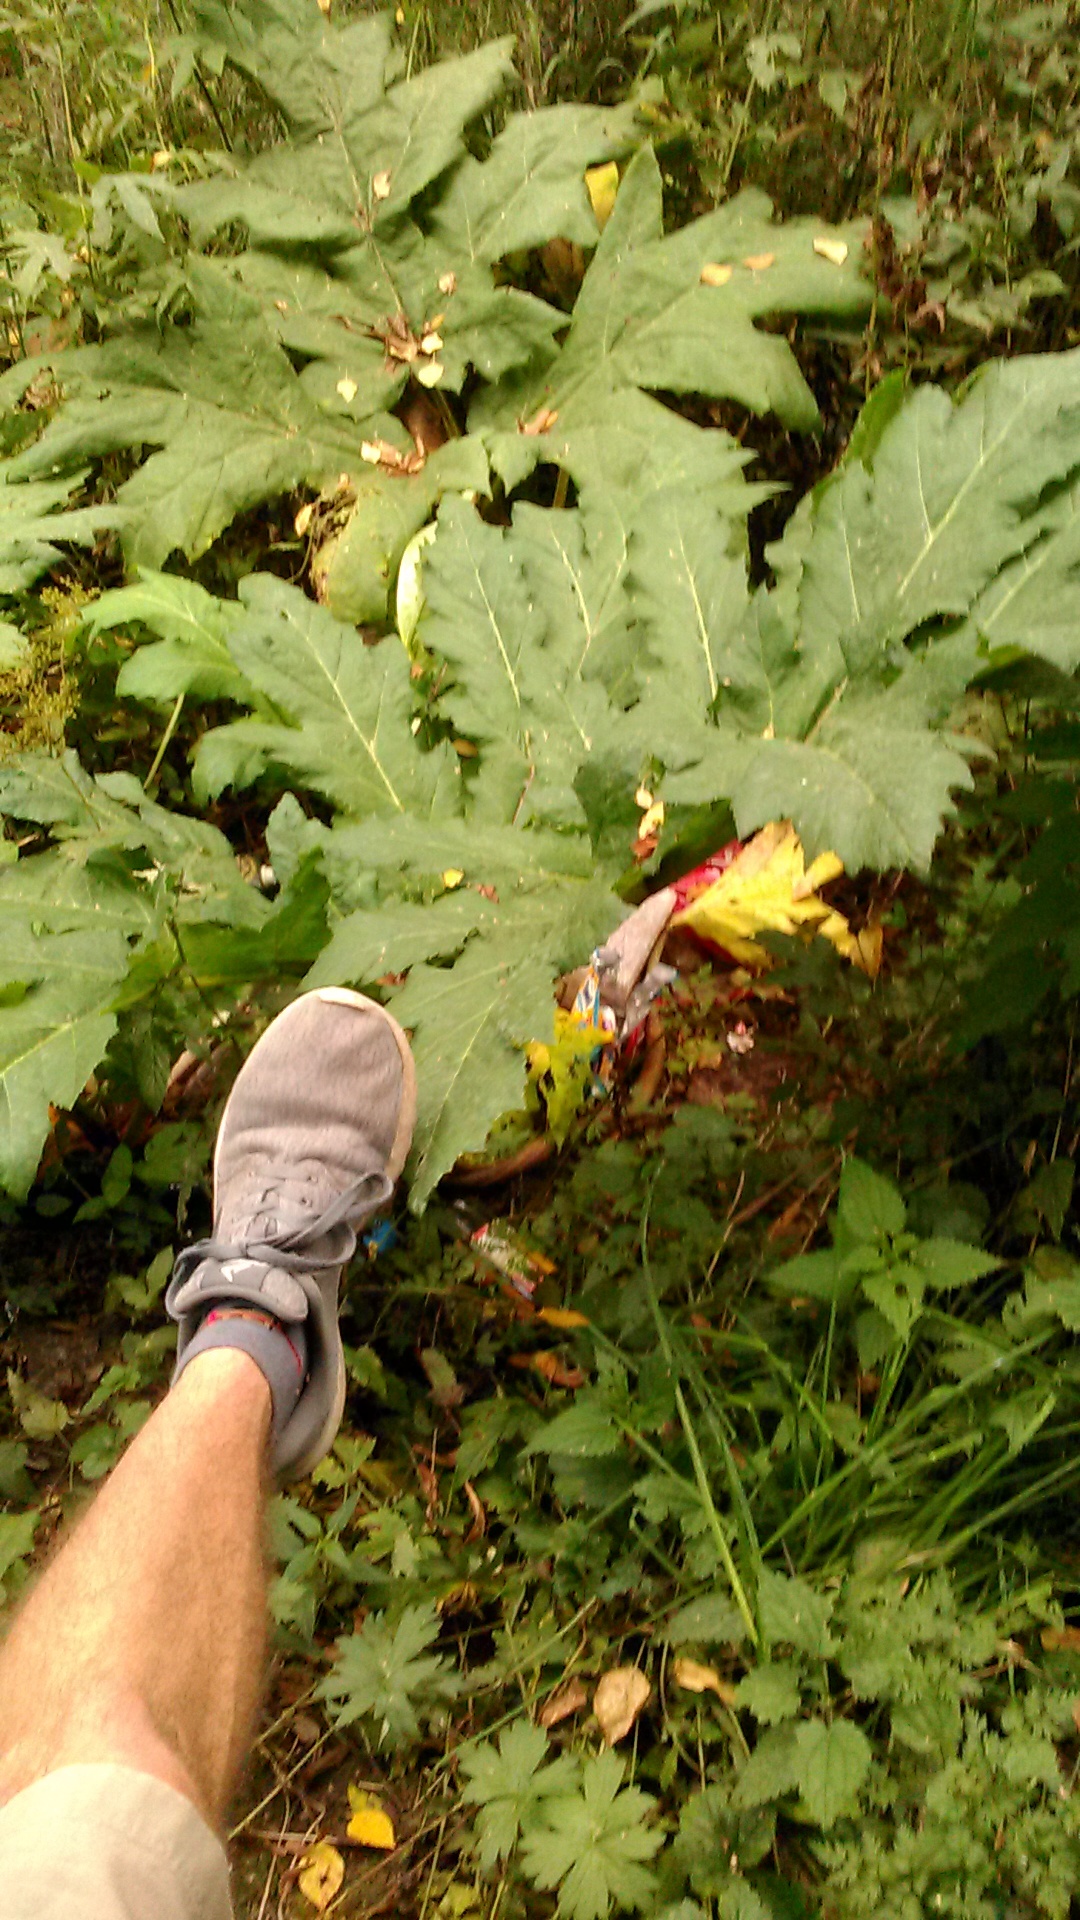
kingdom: Plantae
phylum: Tracheophyta
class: Magnoliopsida
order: Apiales
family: Apiaceae
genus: Heracleum
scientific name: Heracleum sosnowskyi
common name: Sosnowsky's hogweed
